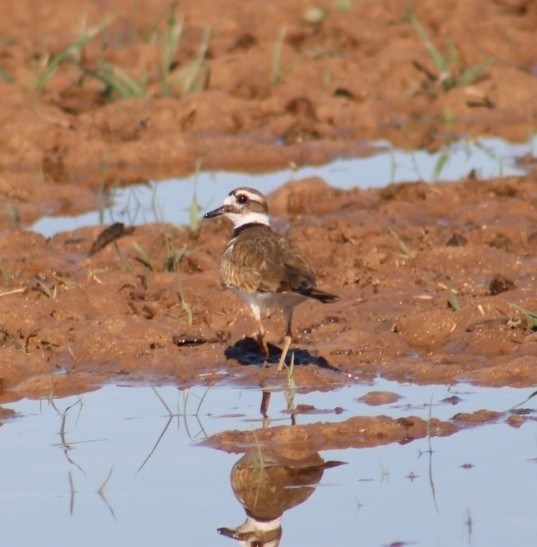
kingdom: Animalia
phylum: Chordata
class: Aves
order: Charadriiformes
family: Charadriidae
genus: Charadrius
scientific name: Charadrius vociferus
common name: Killdeer
